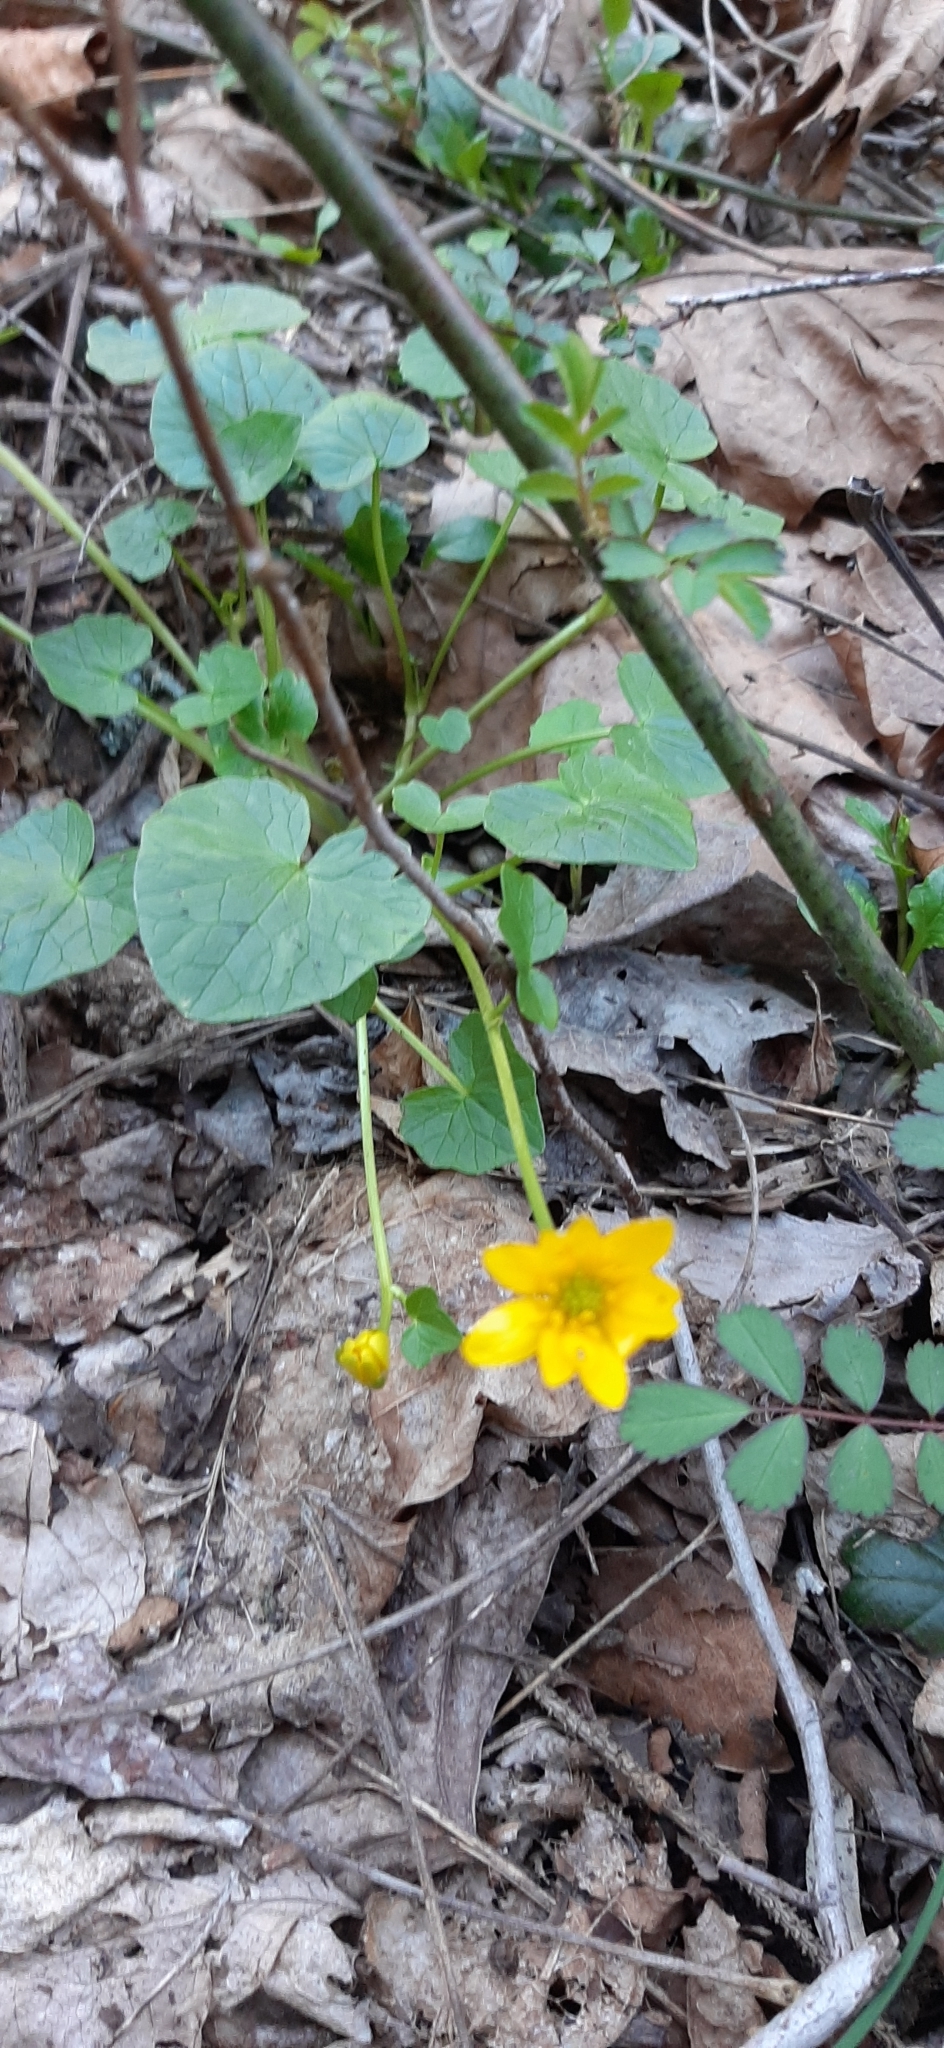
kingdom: Plantae
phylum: Tracheophyta
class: Magnoliopsida
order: Ranunculales
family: Ranunculaceae
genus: Ficaria
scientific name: Ficaria verna
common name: Lesser celandine
